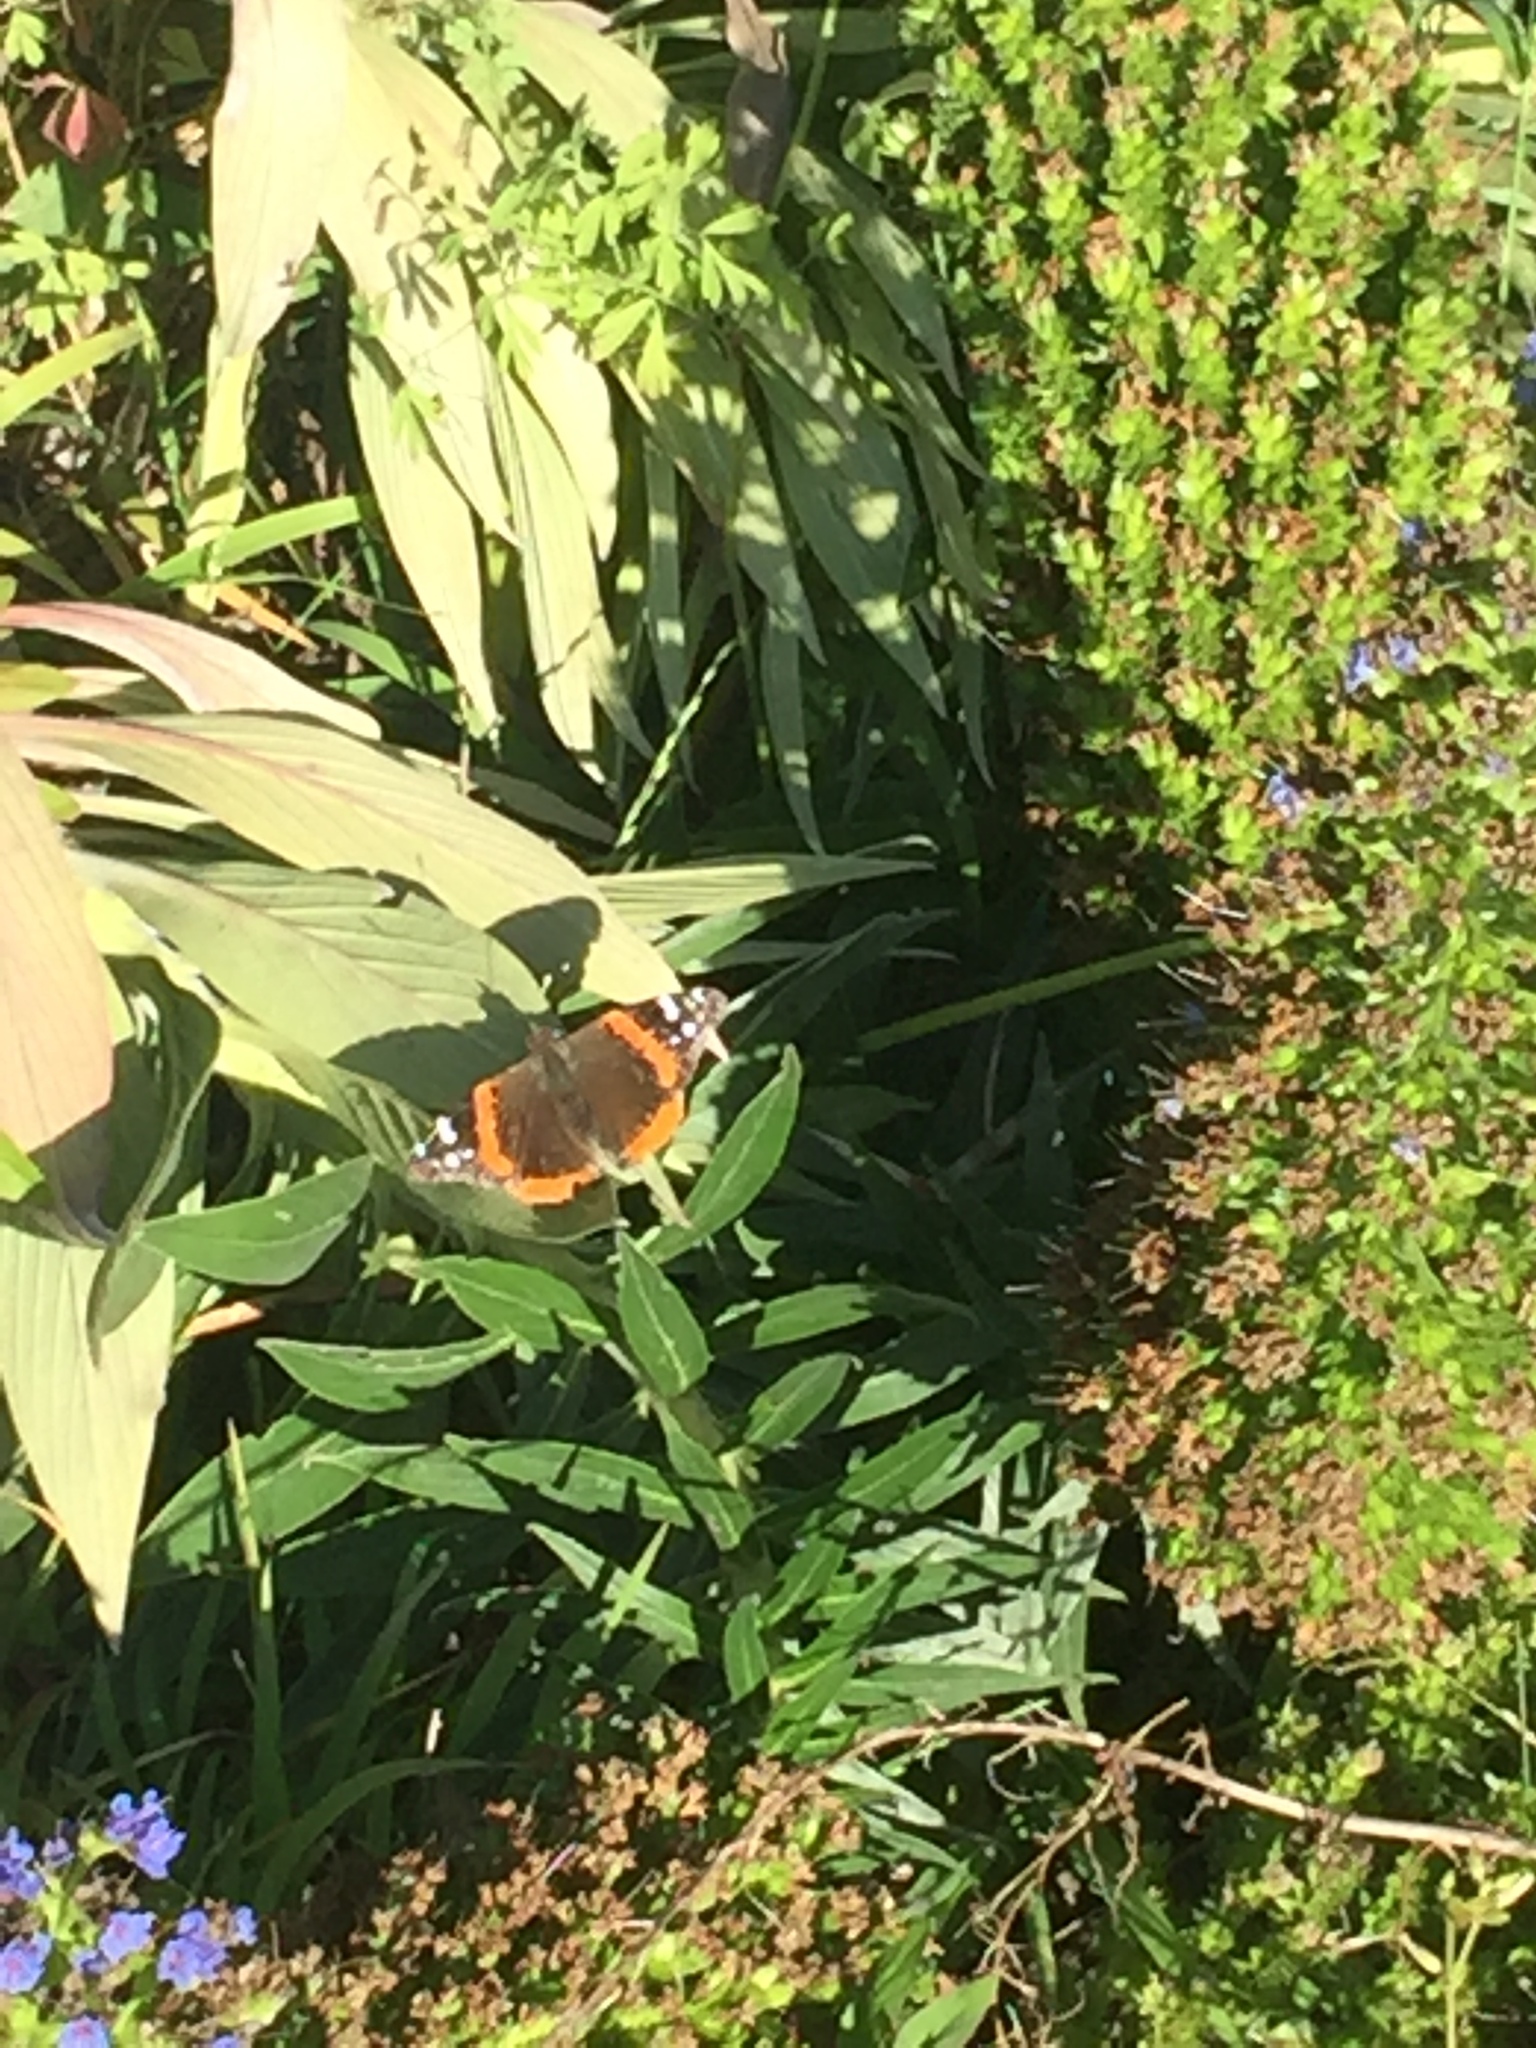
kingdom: Animalia
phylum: Arthropoda
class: Insecta
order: Lepidoptera
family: Nymphalidae
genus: Vanessa
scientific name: Vanessa atalanta
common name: Red admiral
